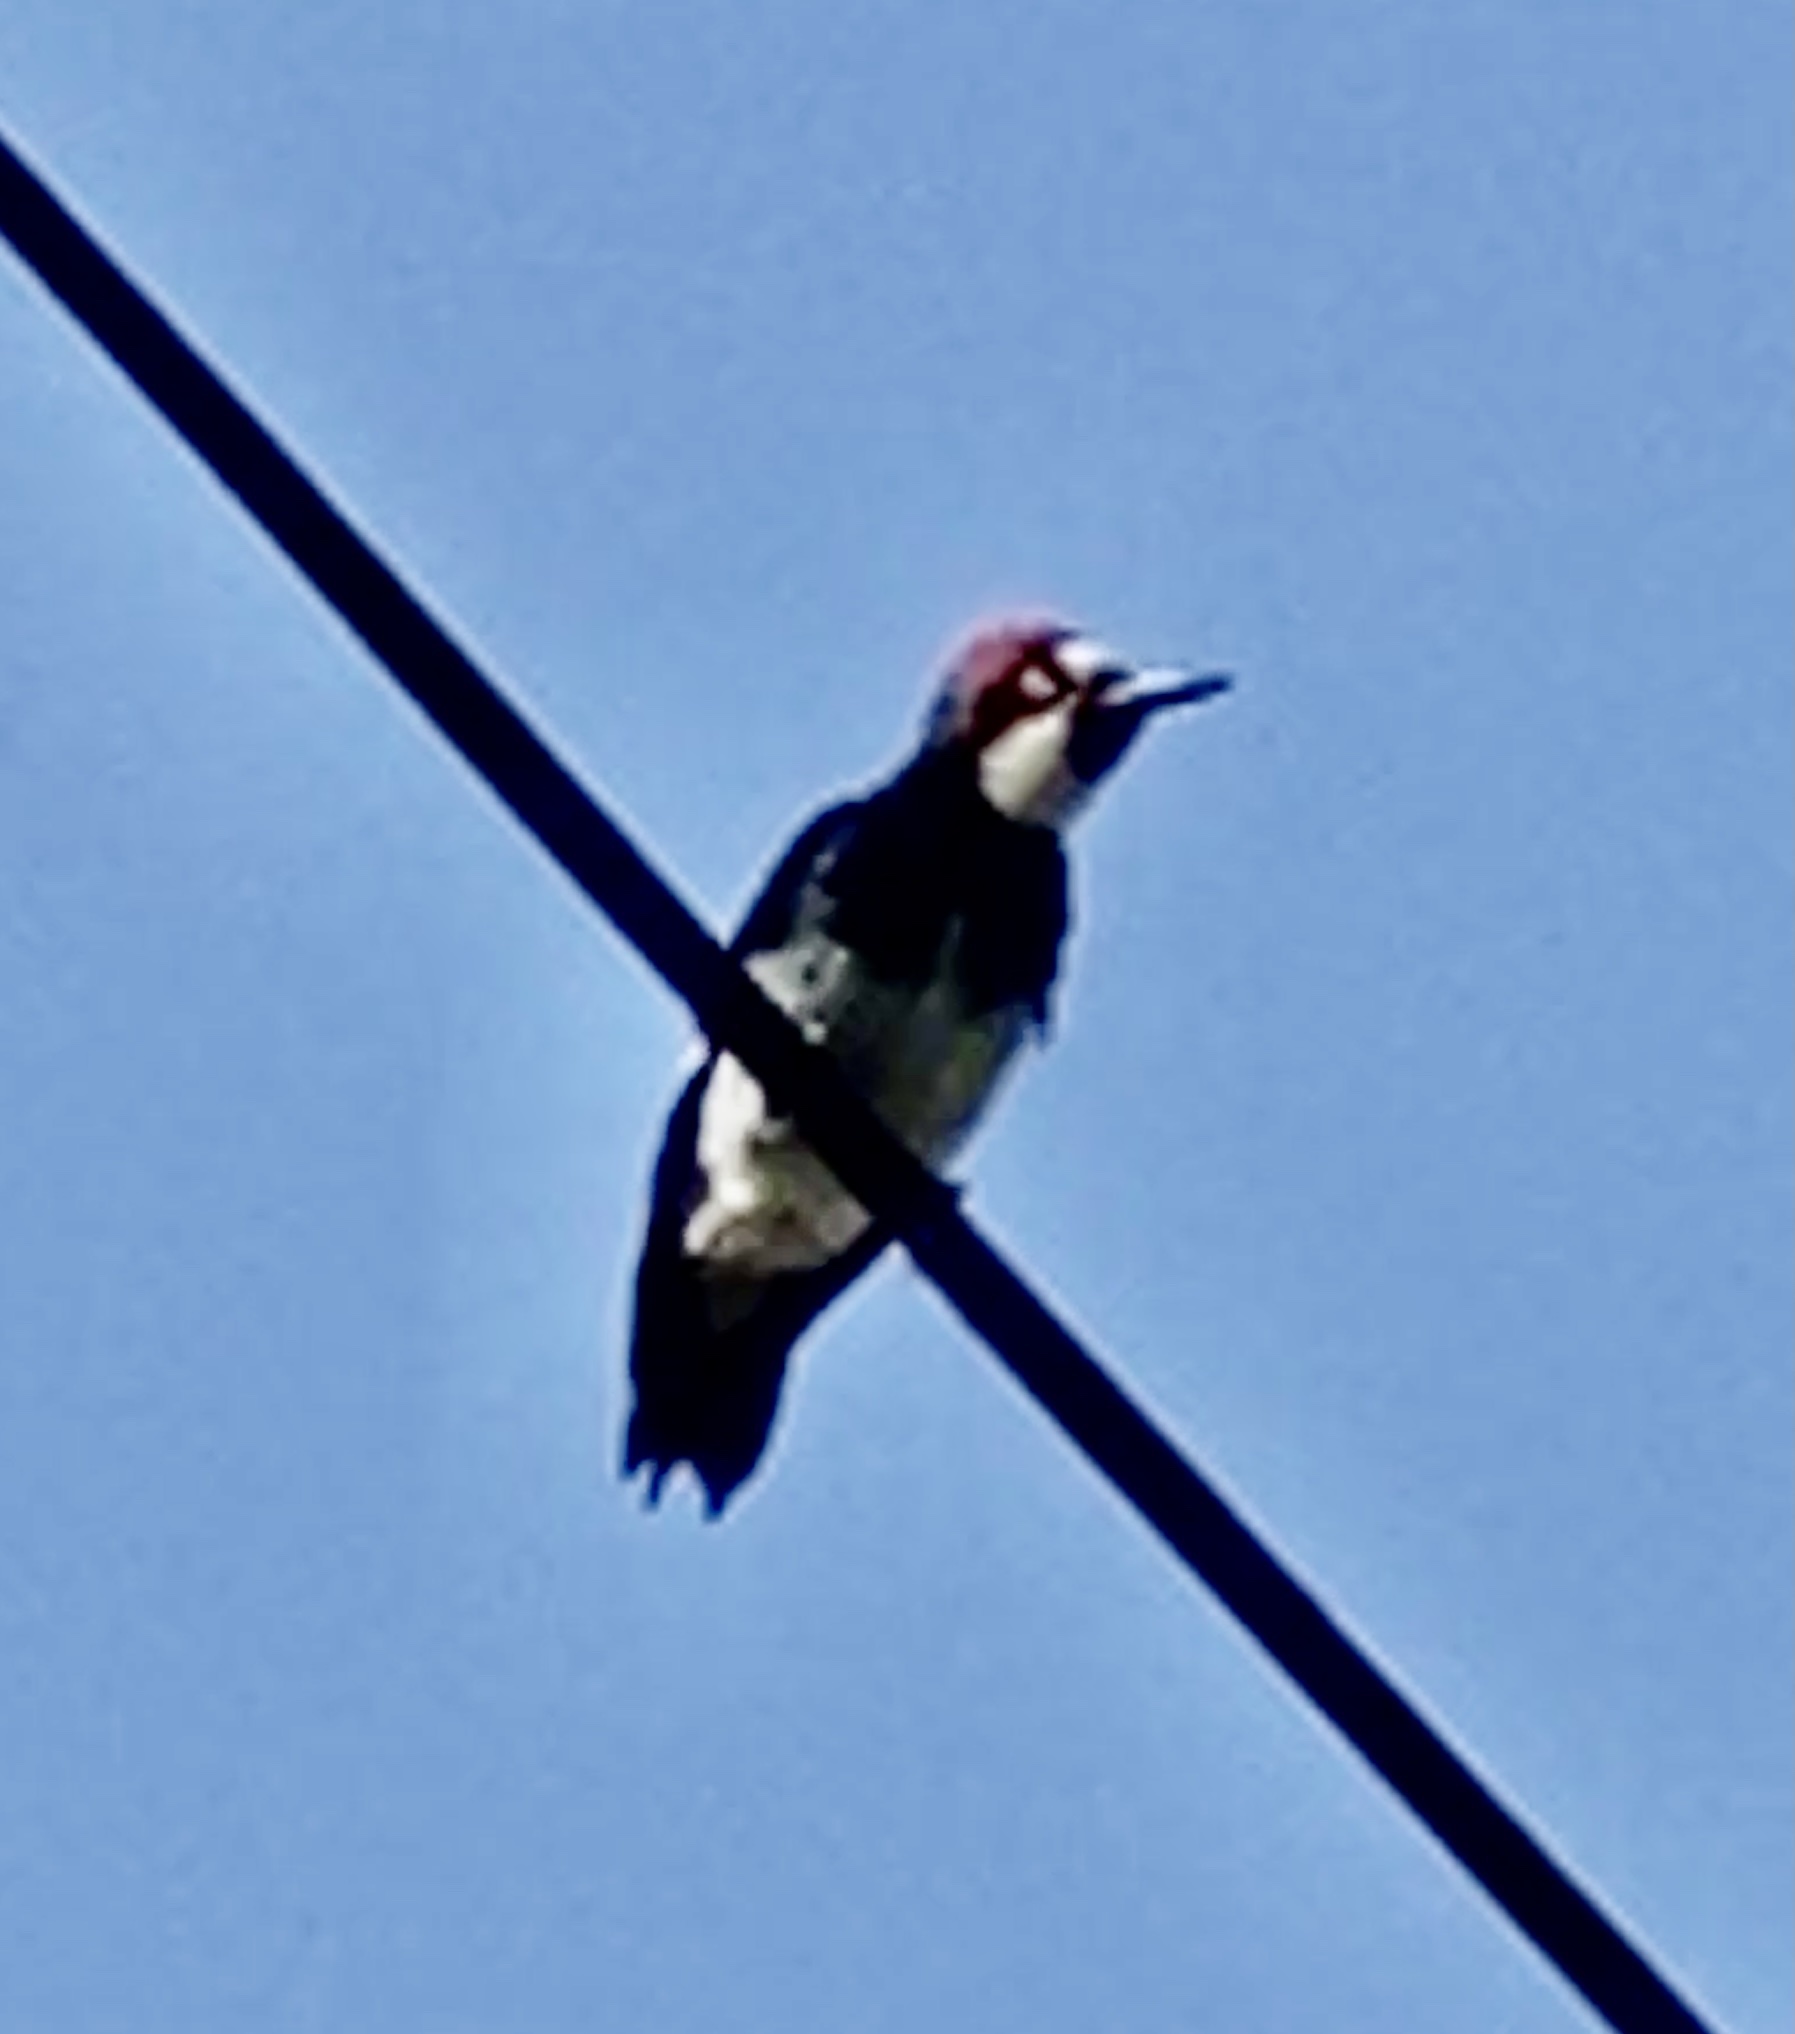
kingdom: Animalia
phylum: Chordata
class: Aves
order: Piciformes
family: Picidae
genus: Melanerpes
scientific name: Melanerpes formicivorus
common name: Acorn woodpecker
